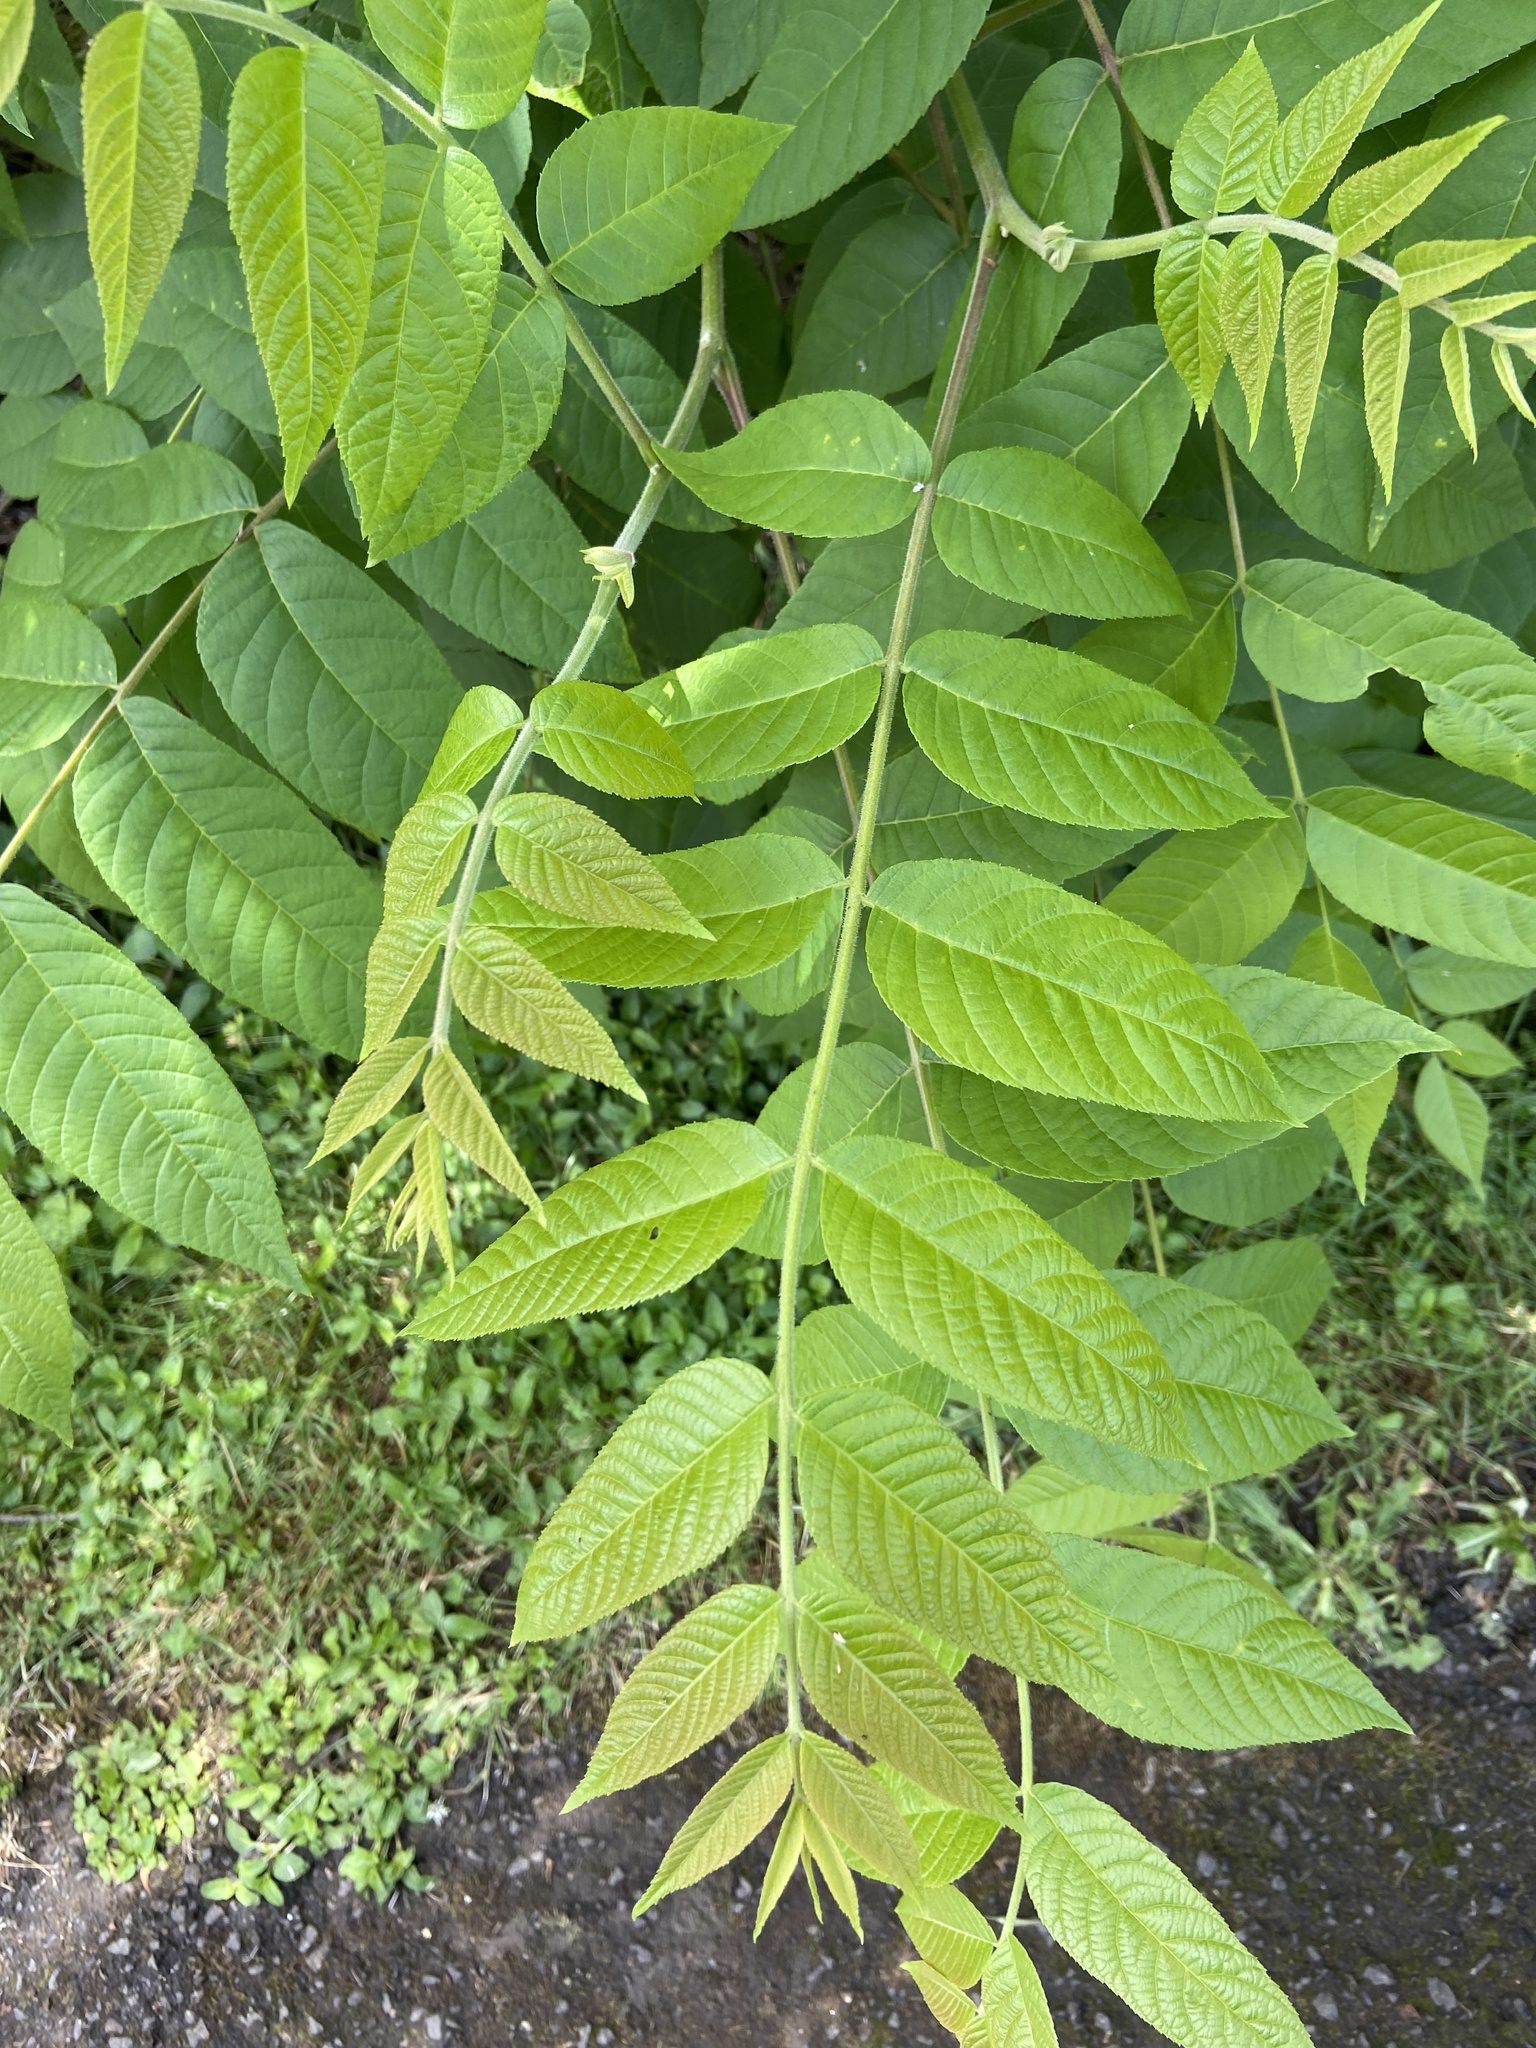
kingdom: Plantae
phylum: Tracheophyta
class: Magnoliopsida
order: Fagales
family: Juglandaceae
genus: Juglans
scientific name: Juglans nigra
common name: Black walnut
